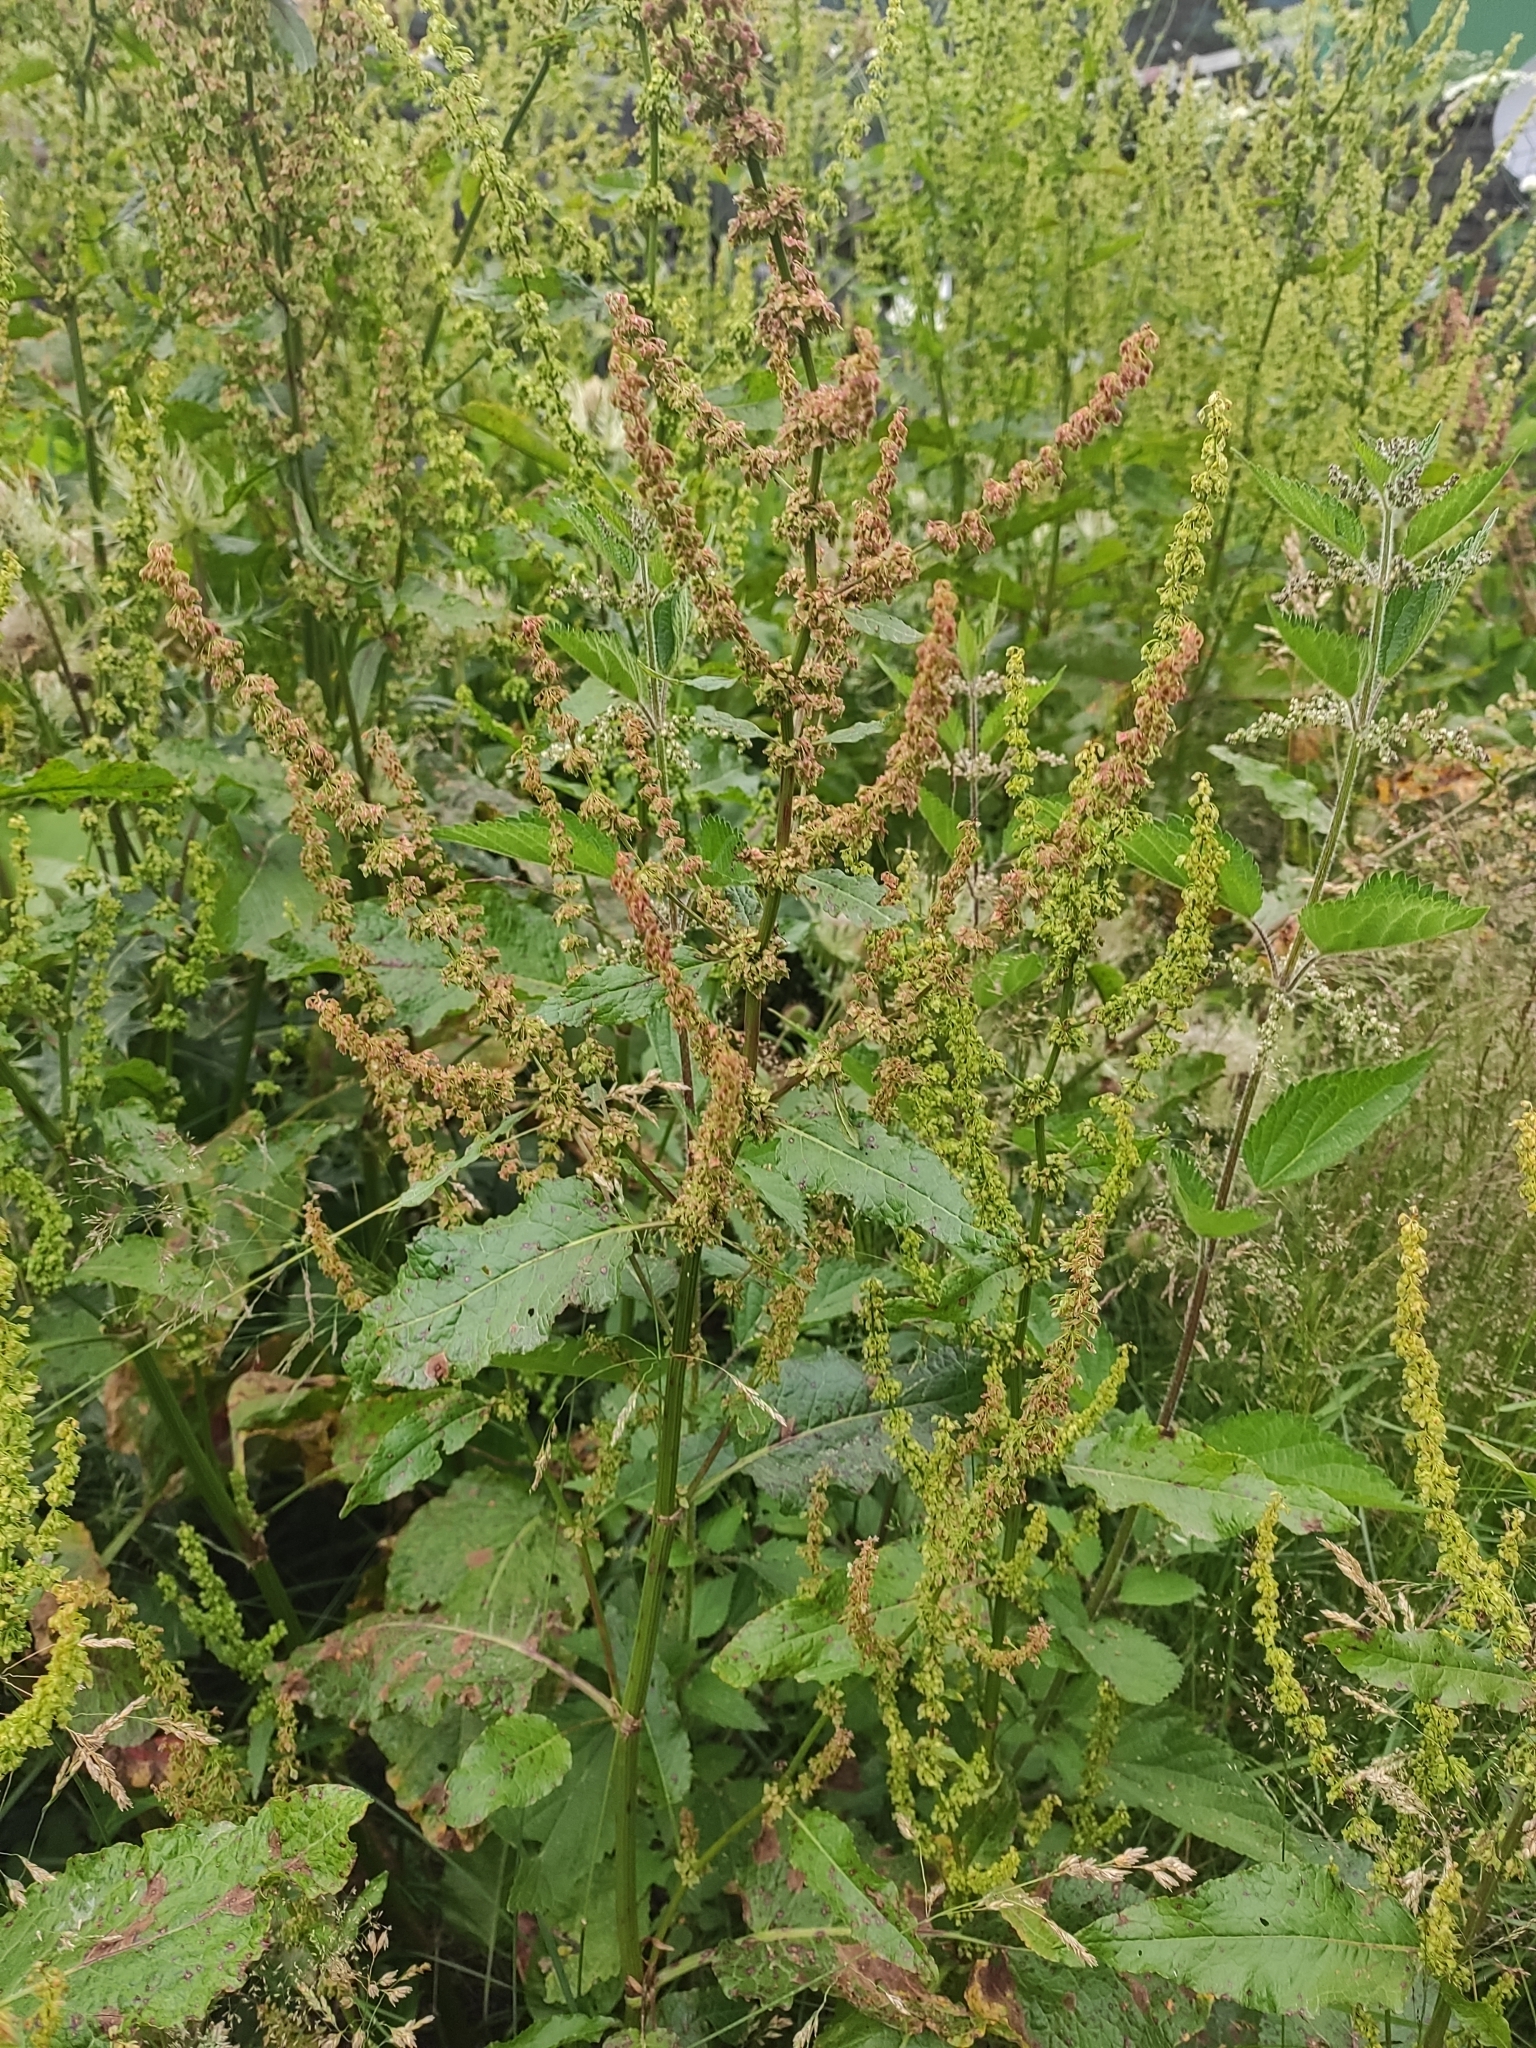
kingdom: Plantae
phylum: Tracheophyta
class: Magnoliopsida
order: Caryophyllales
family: Polygonaceae
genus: Rumex
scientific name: Rumex obtusifolius
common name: Bitter dock
